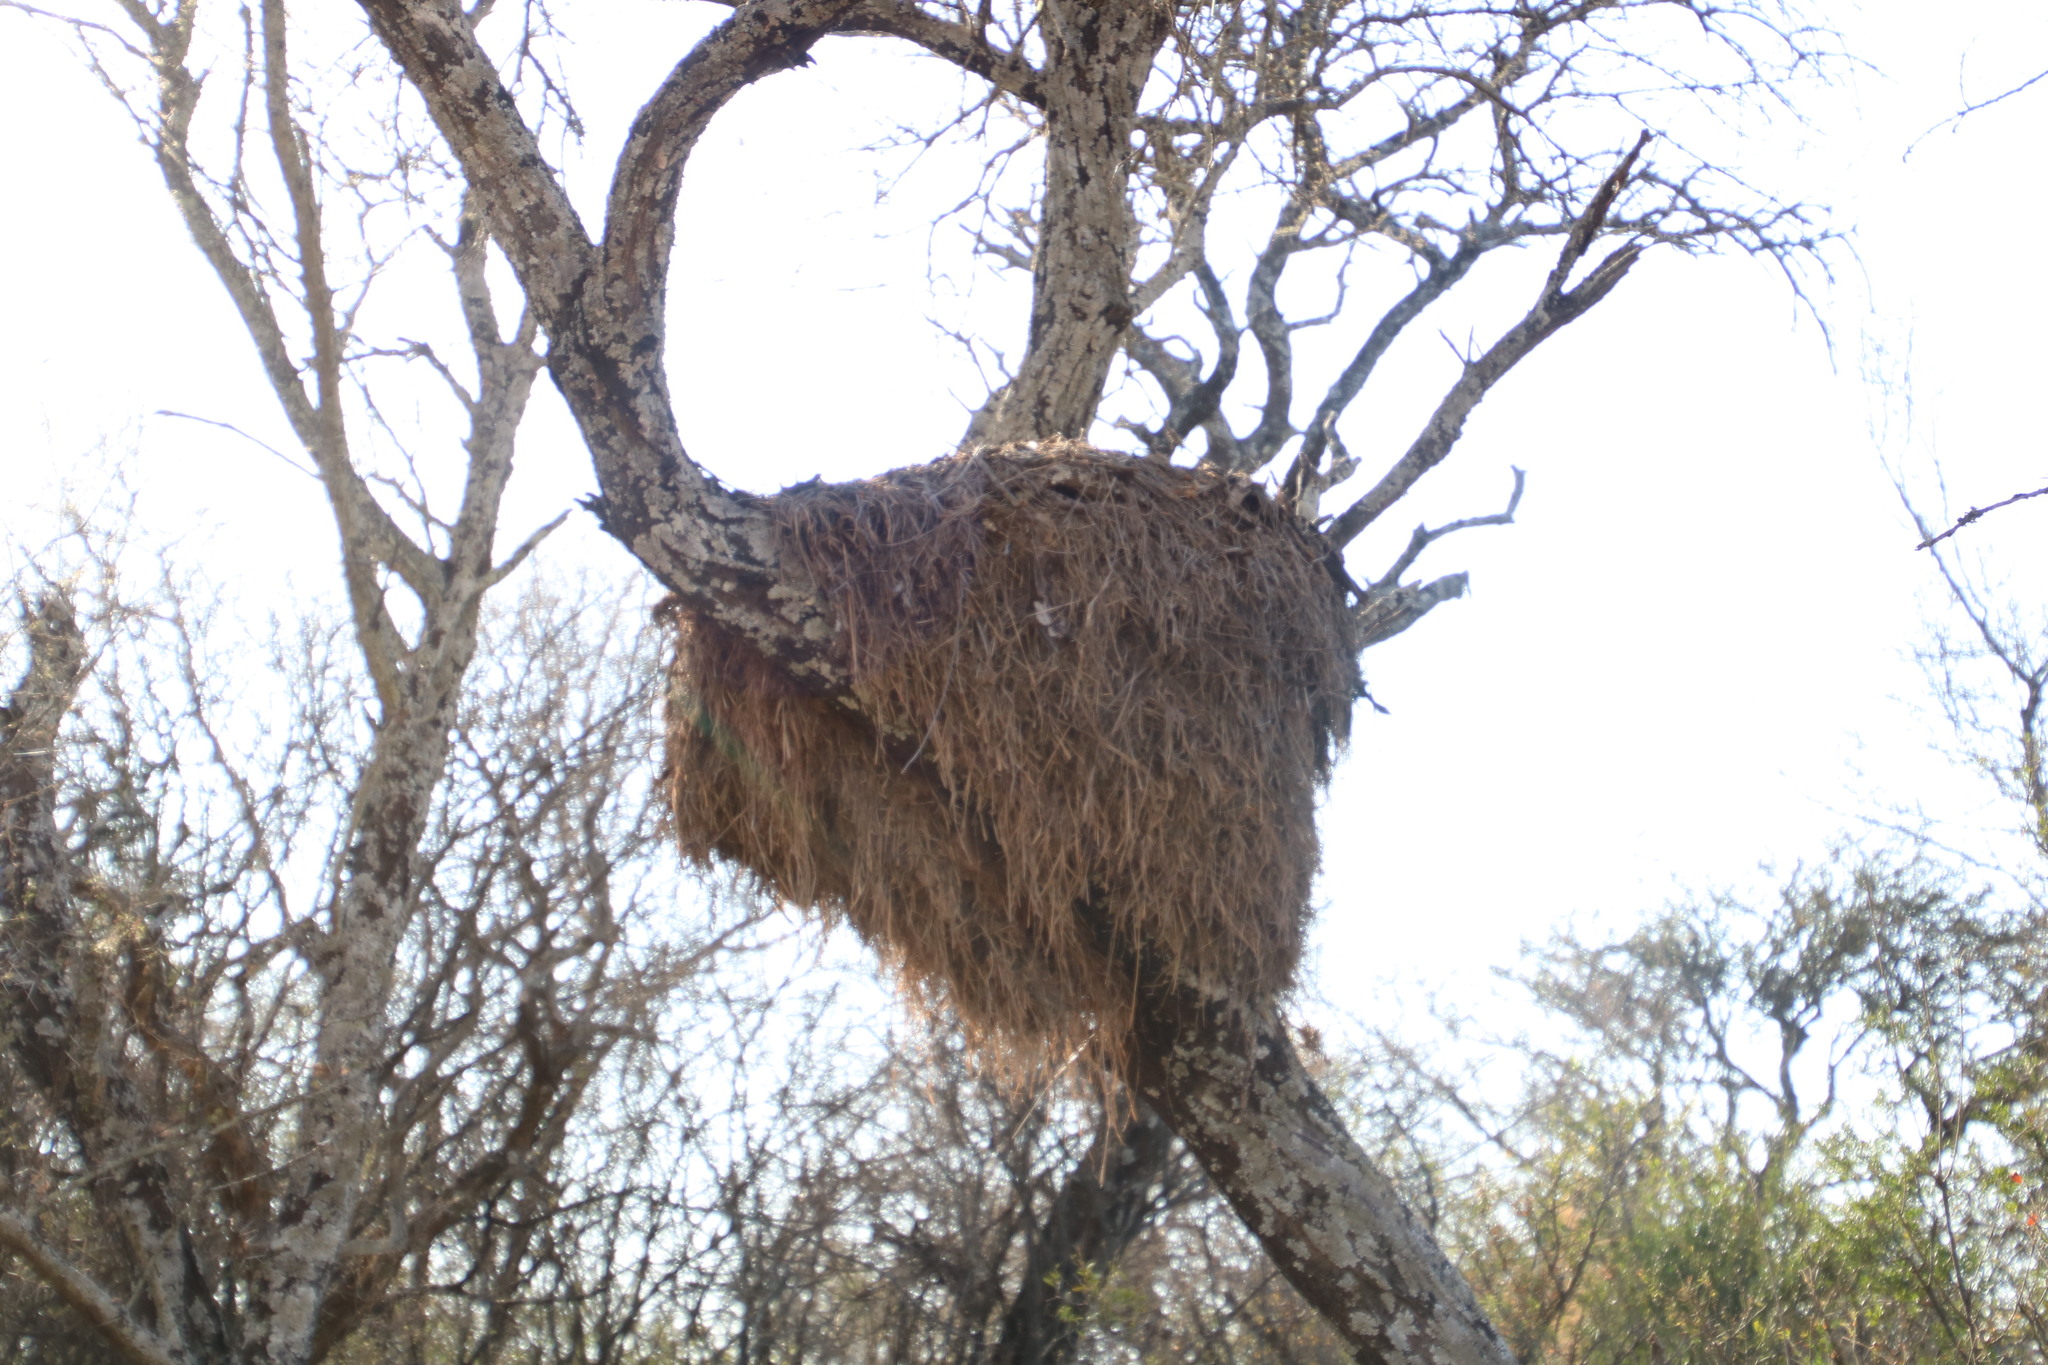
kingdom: Animalia
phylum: Chordata
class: Aves
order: Pelecaniformes
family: Scopidae
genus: Scopus
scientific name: Scopus umbretta
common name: Hamerkop
